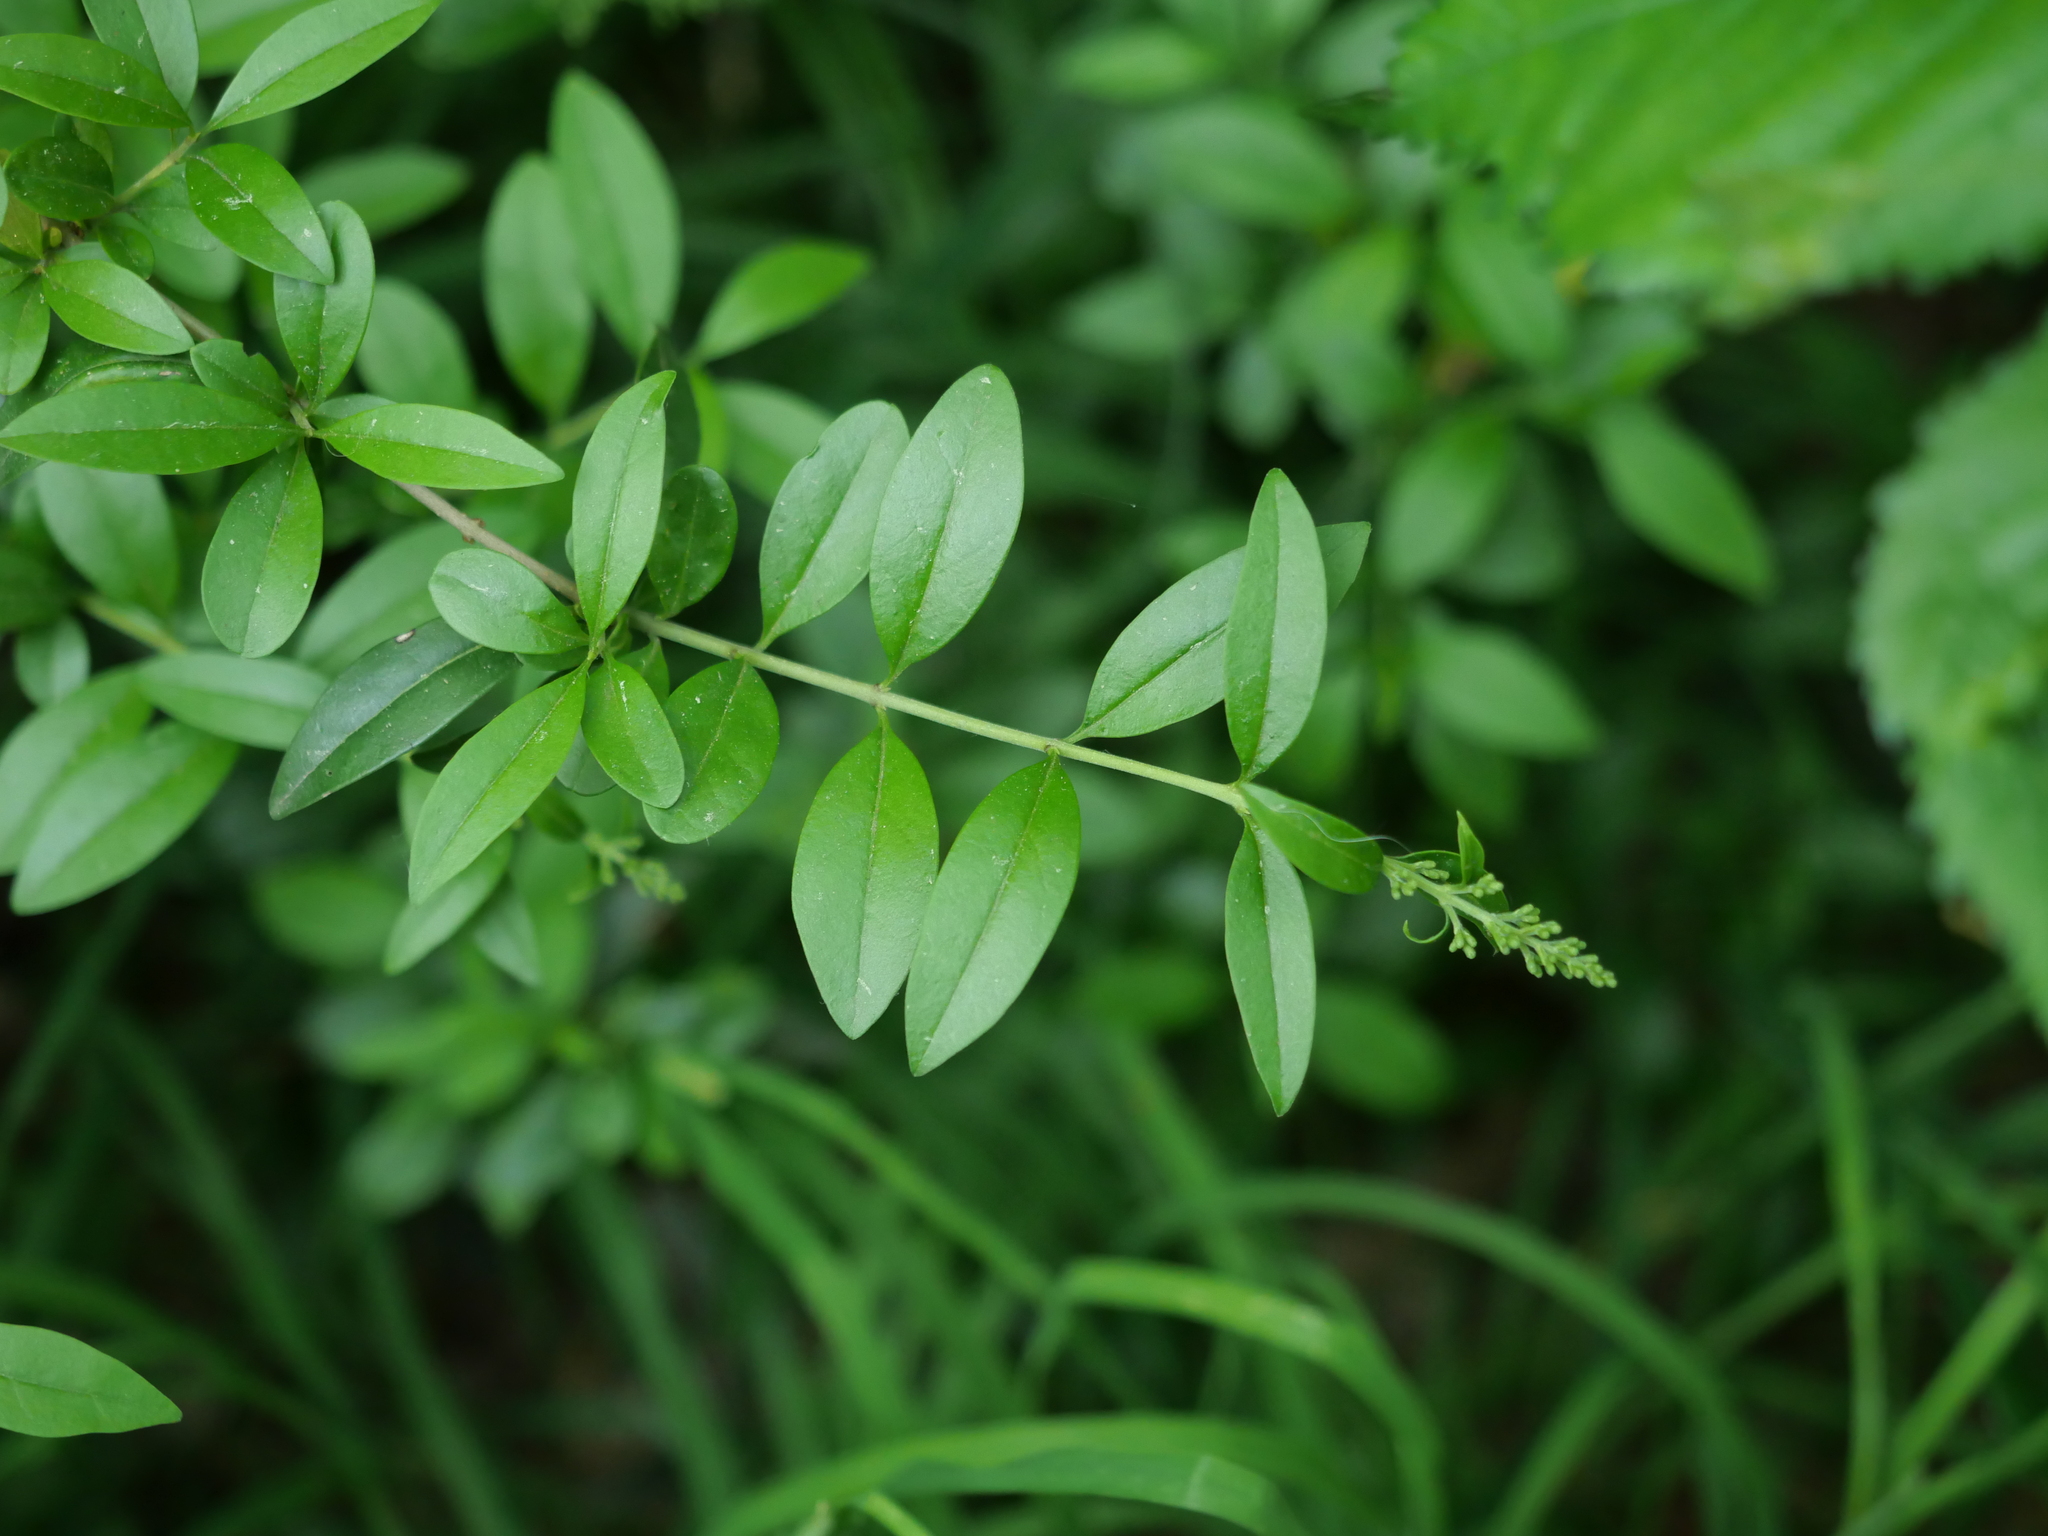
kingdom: Plantae
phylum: Tracheophyta
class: Magnoliopsida
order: Lamiales
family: Oleaceae
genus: Ligustrum
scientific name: Ligustrum vulgare
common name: Wild privet
